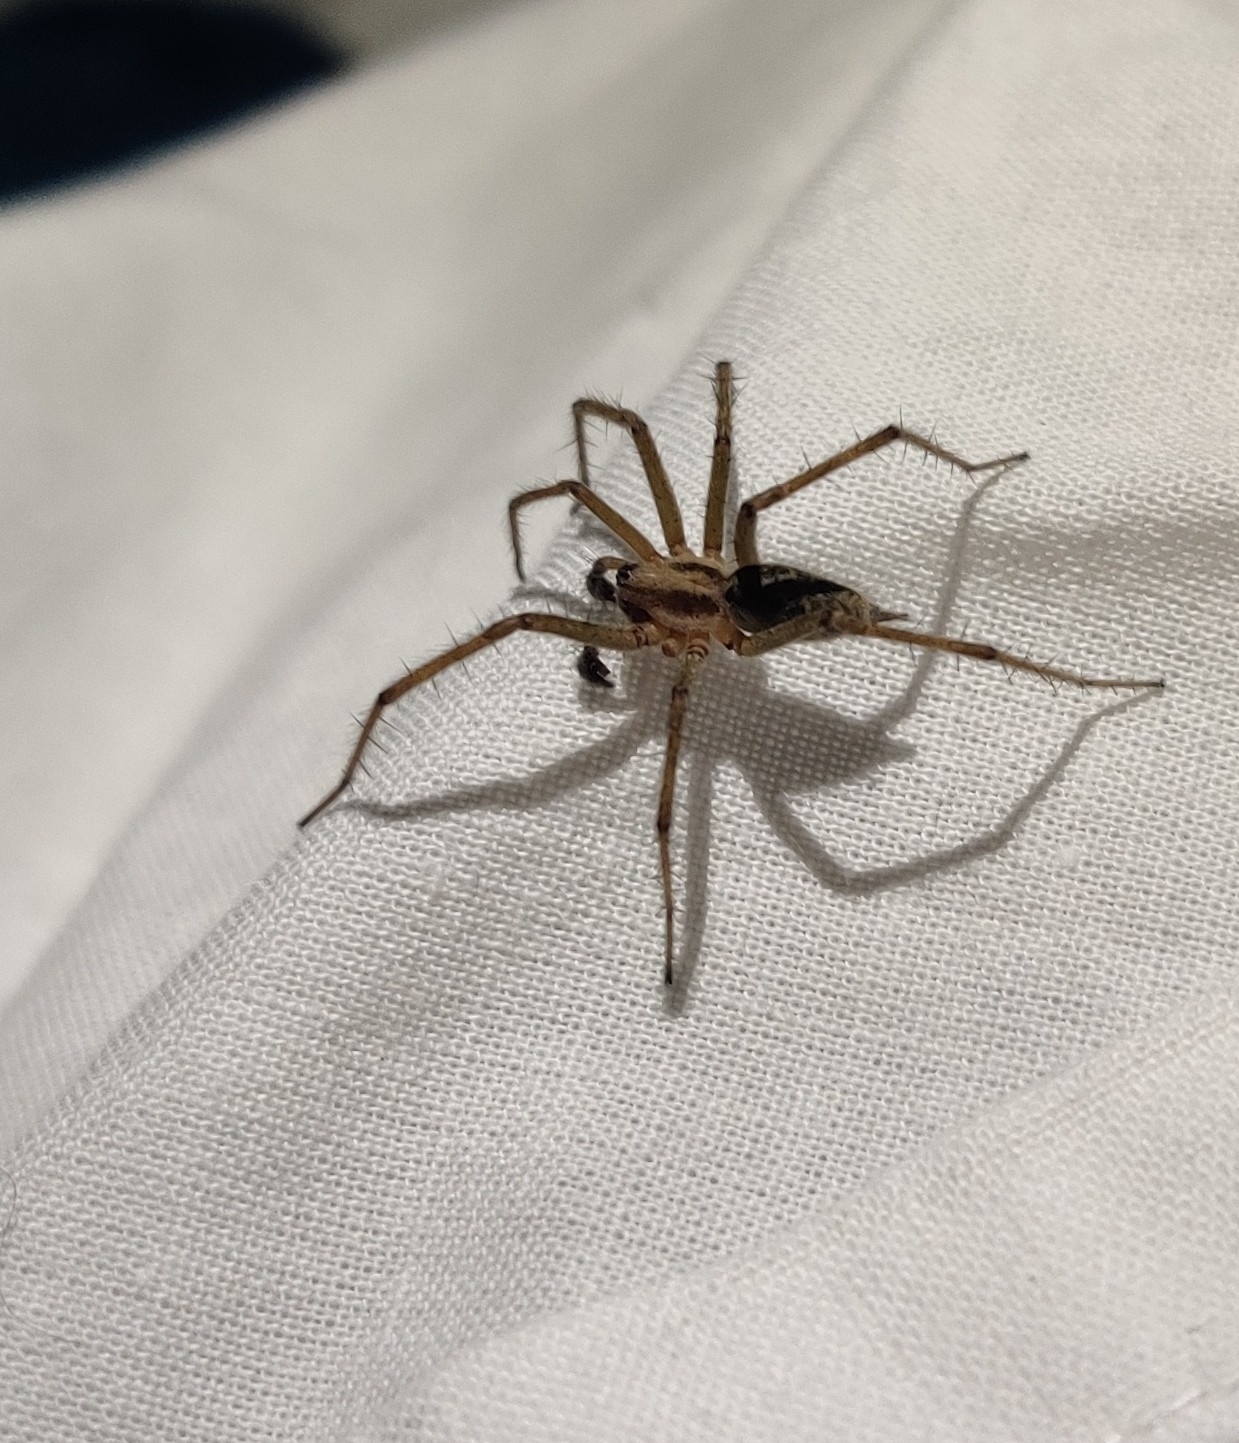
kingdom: Animalia
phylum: Arthropoda
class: Arachnida
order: Araneae
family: Agelenidae
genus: Agelena
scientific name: Agelena labyrinthica
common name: Labyrinth spider
